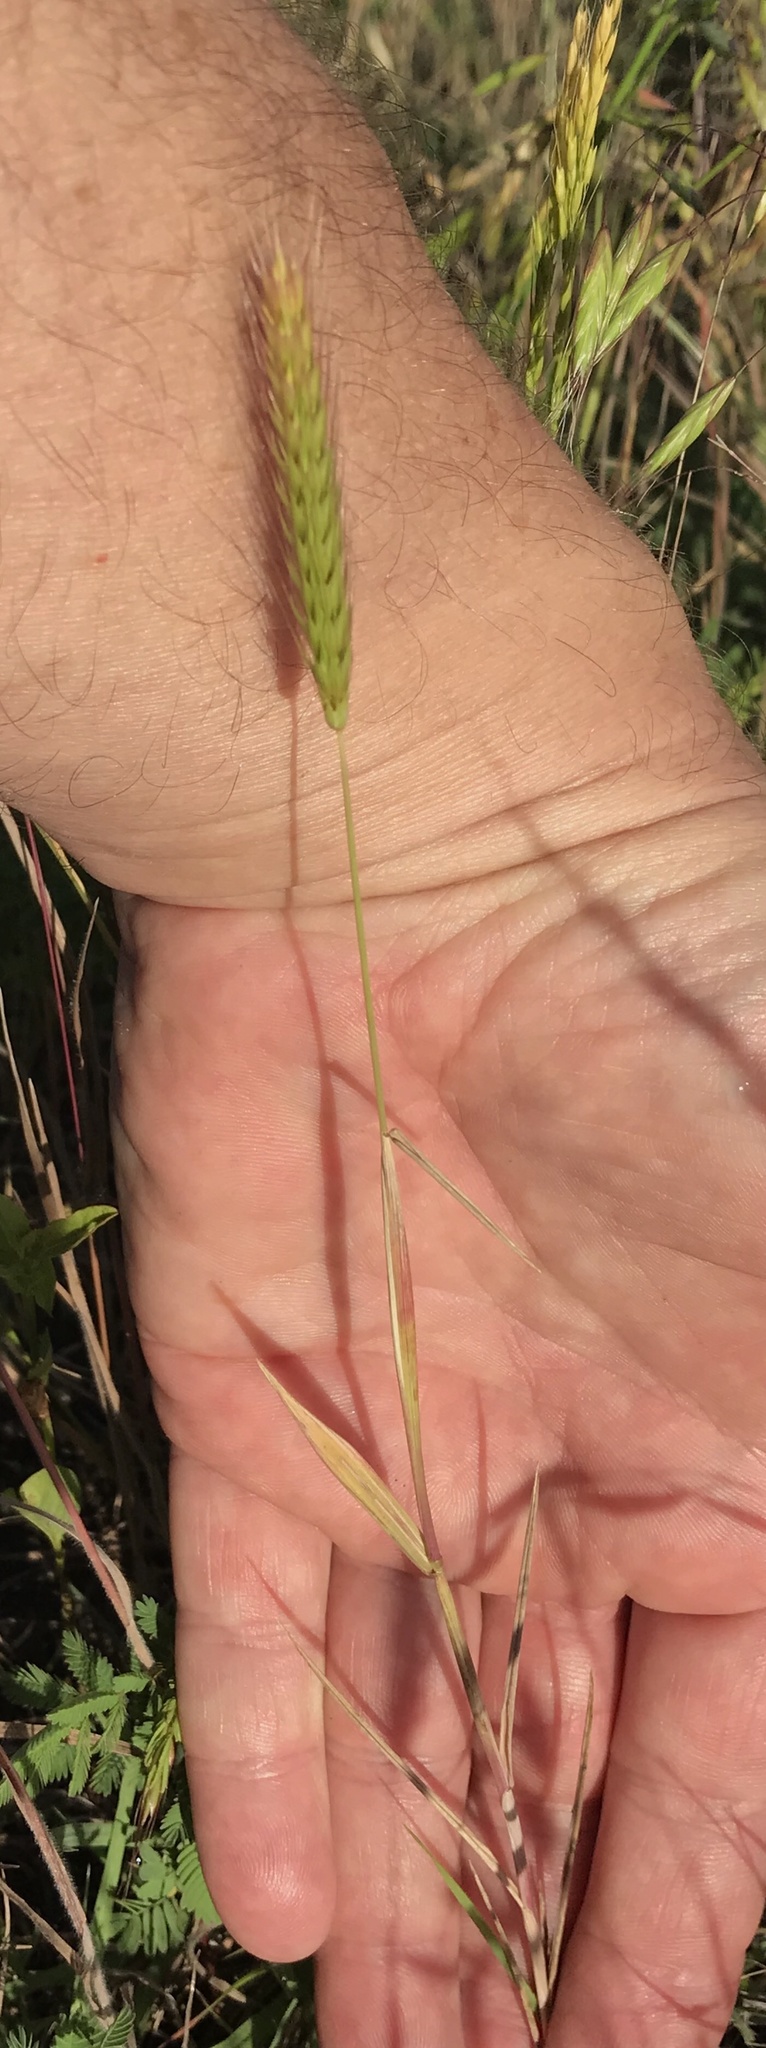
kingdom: Plantae
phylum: Tracheophyta
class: Liliopsida
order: Poales
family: Poaceae
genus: Hordeum
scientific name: Hordeum pusillum
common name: Little barley
